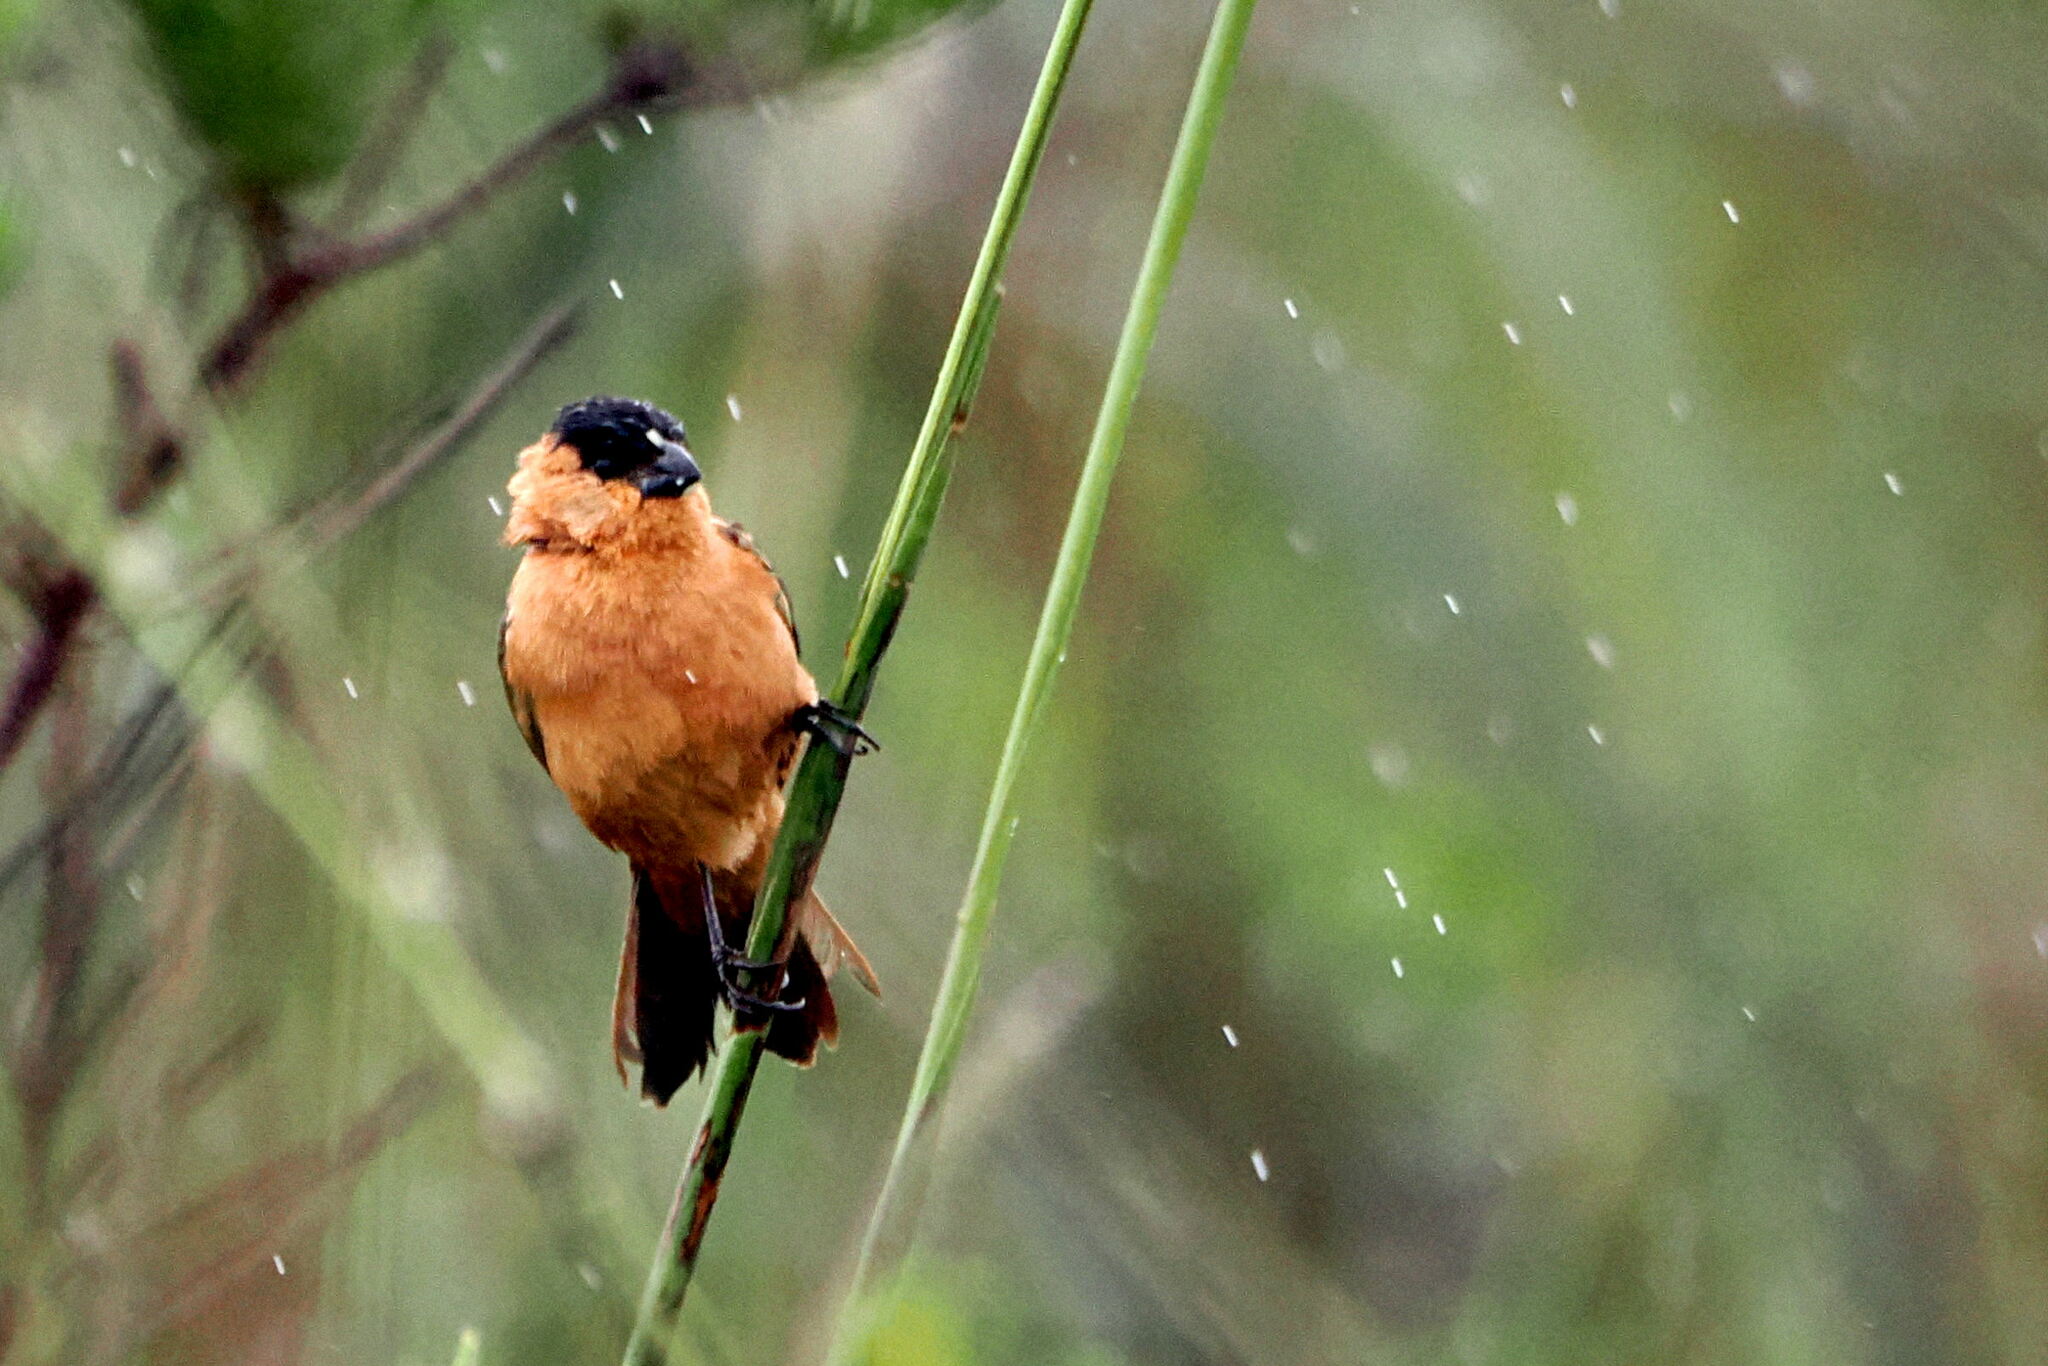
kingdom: Animalia
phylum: Chordata
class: Aves
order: Passeriformes
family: Thraupidae
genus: Sporophila
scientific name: Sporophila bouvreuil
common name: Copper seedeater
